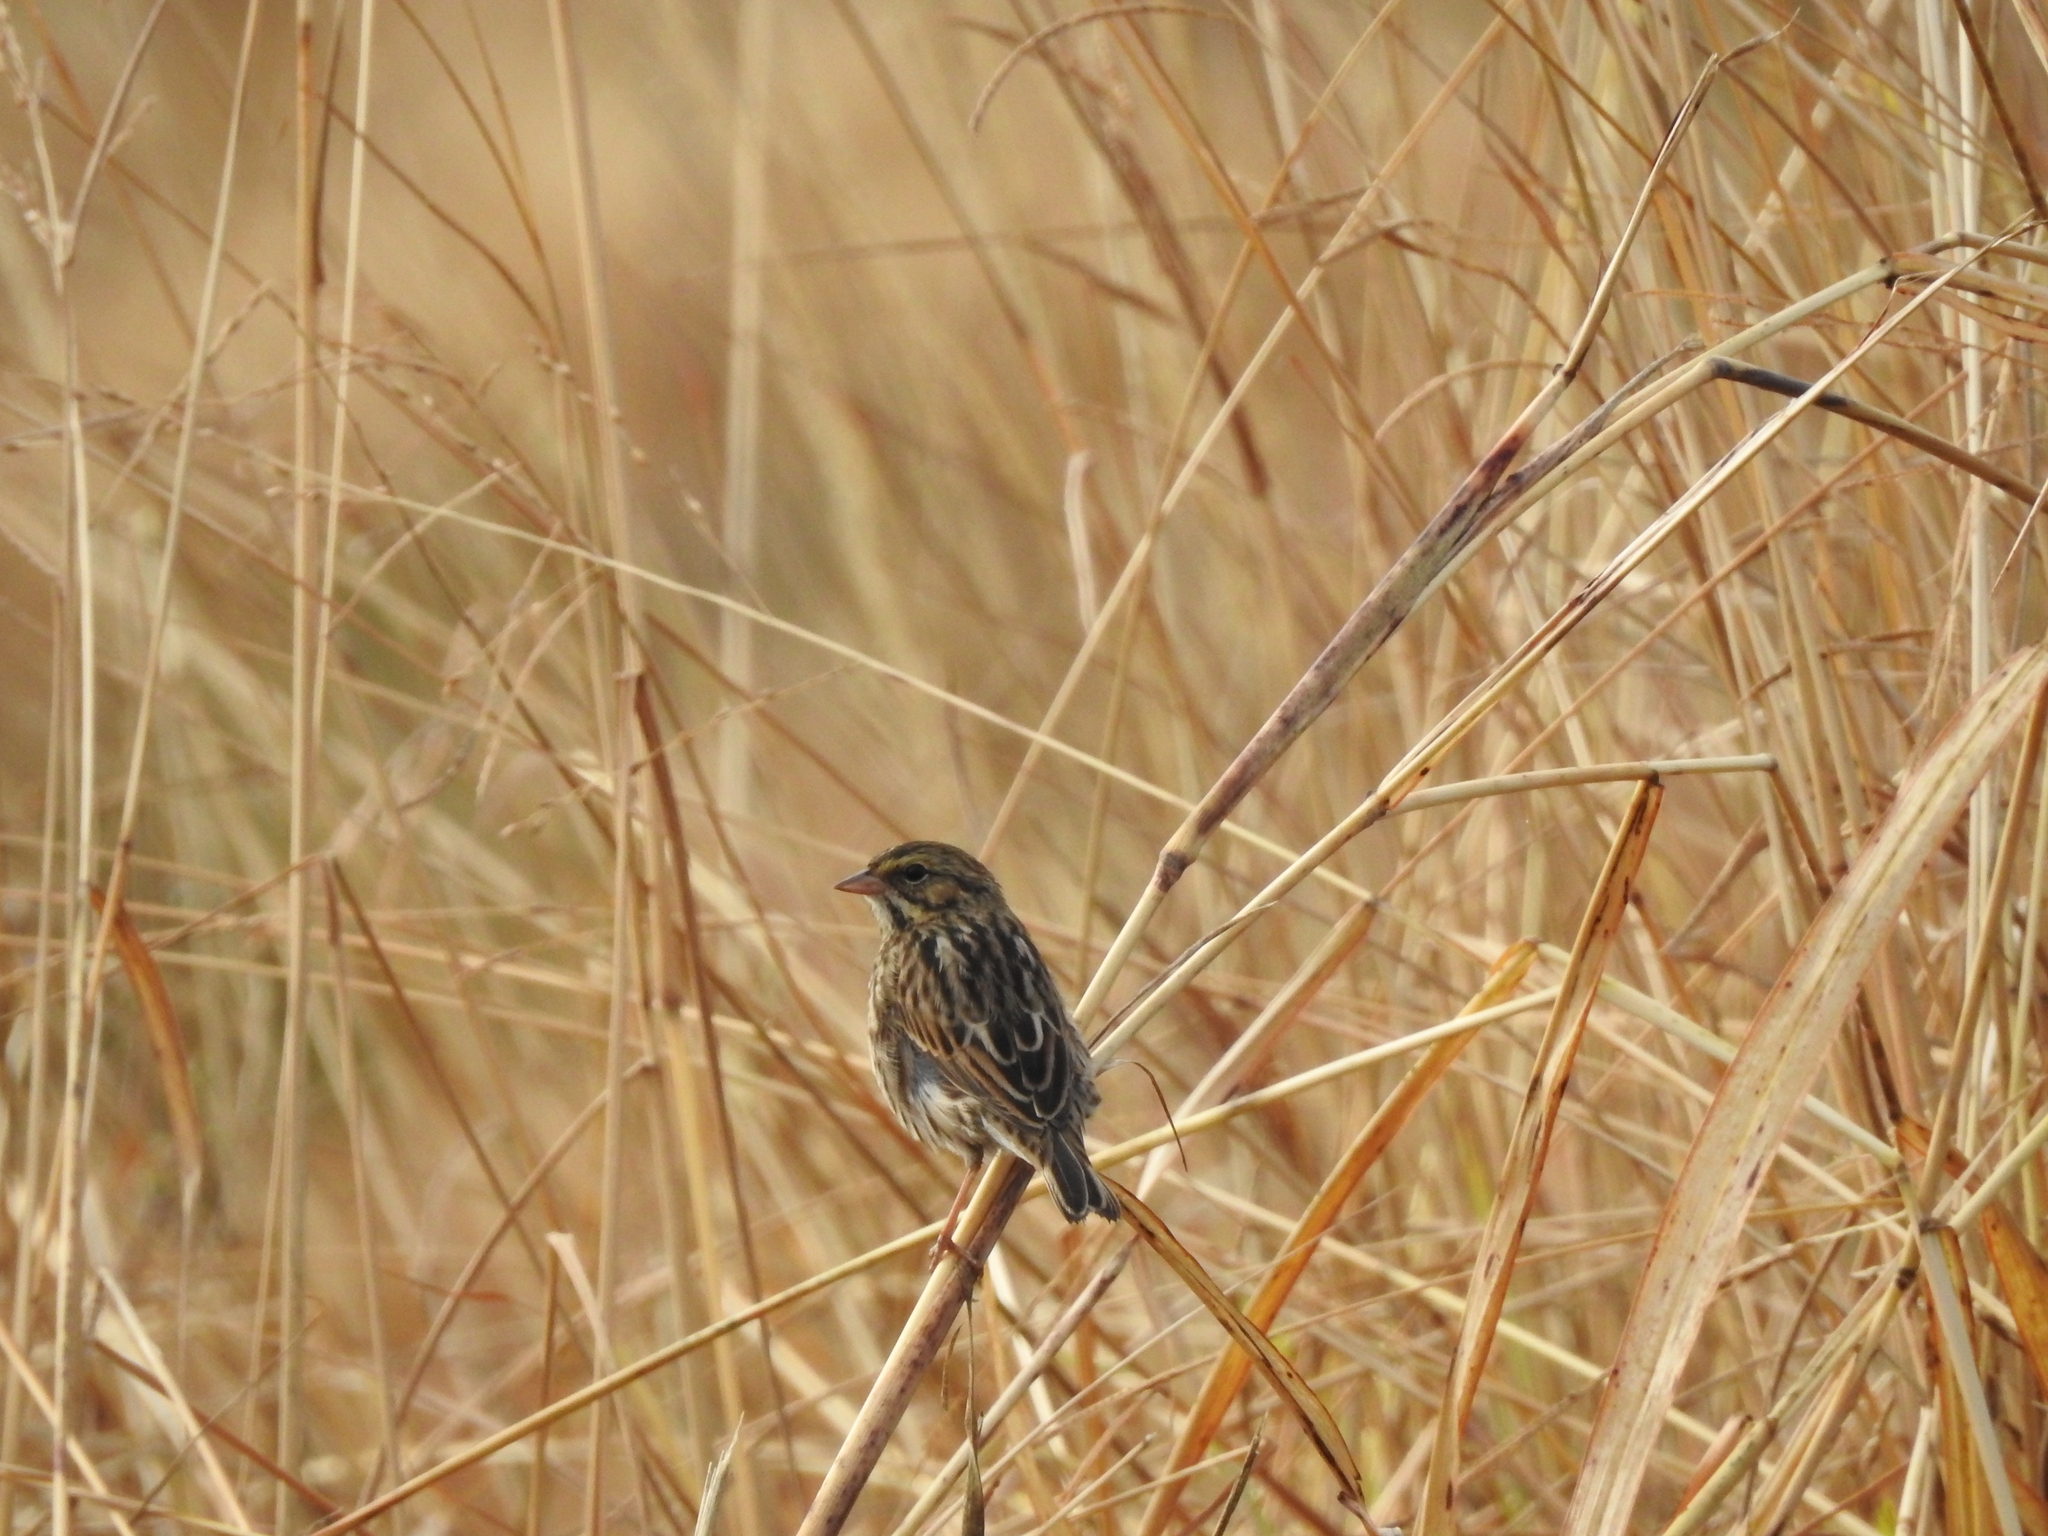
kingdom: Animalia
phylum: Chordata
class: Aves
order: Passeriformes
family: Passerellidae
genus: Passerculus
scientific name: Passerculus sandwichensis
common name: Savannah sparrow
